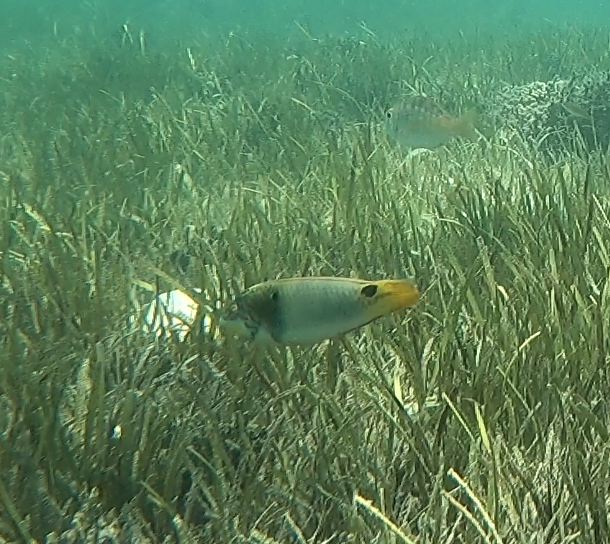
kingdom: Animalia
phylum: Chordata
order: Perciformes
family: Labridae
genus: Halichoeres
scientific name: Halichoeres trimaculatus
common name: Three-spot wrasse
